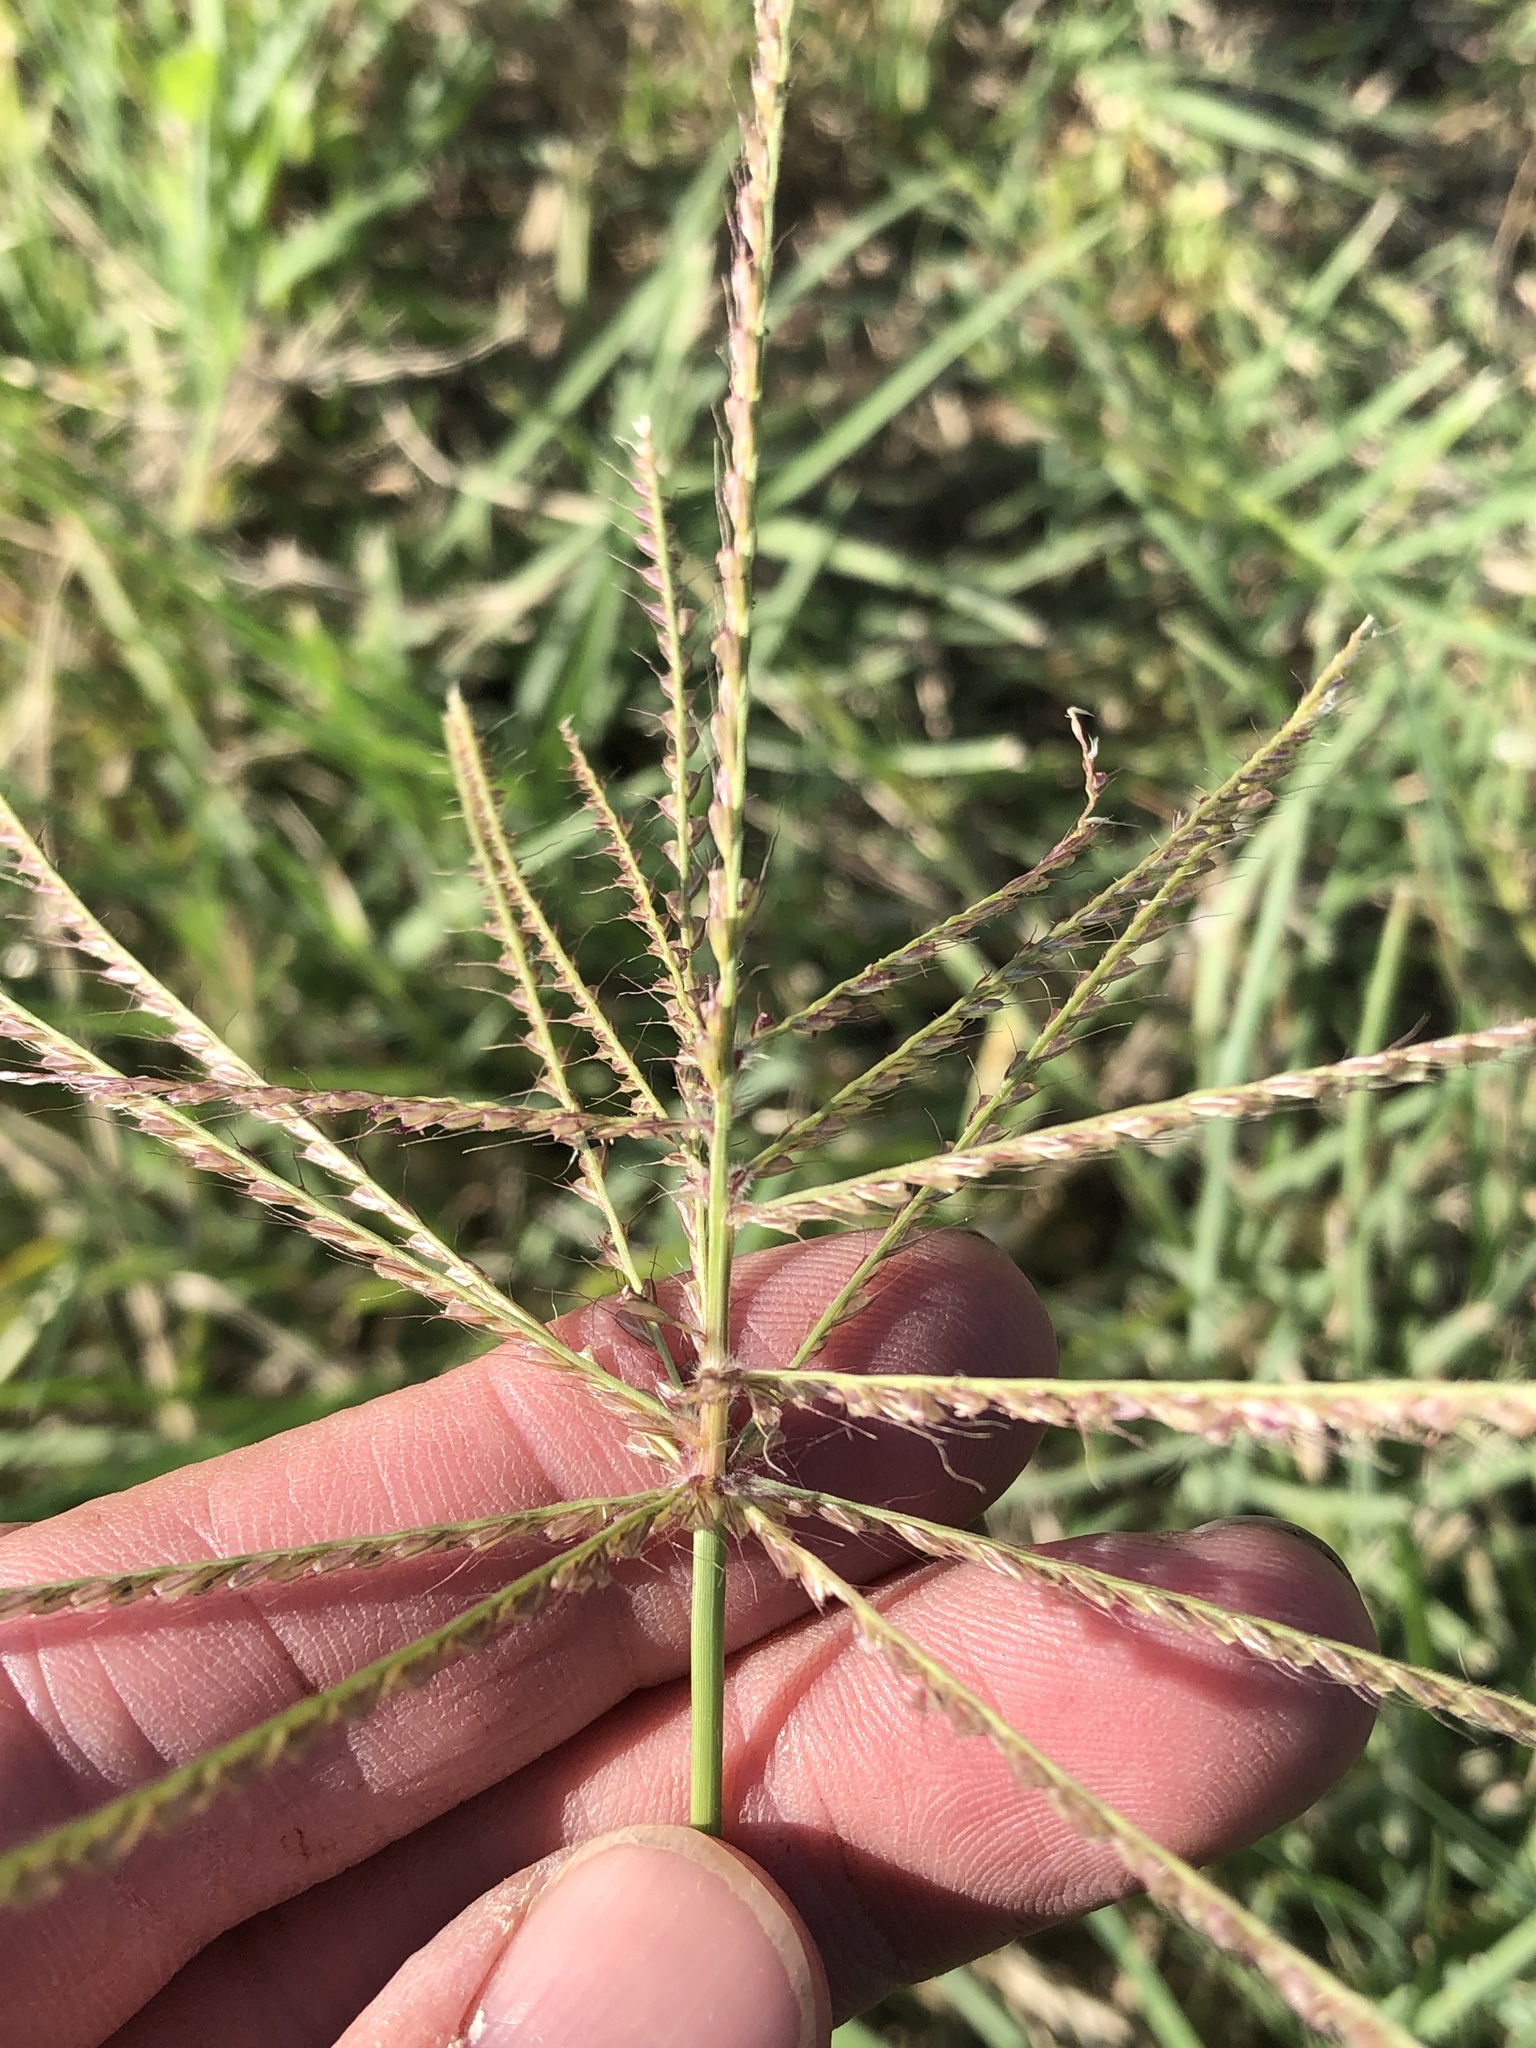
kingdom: Plantae
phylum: Tracheophyta
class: Liliopsida
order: Poales
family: Poaceae
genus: Chloris
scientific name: Chloris verticillata
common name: Tumble windmill grass
